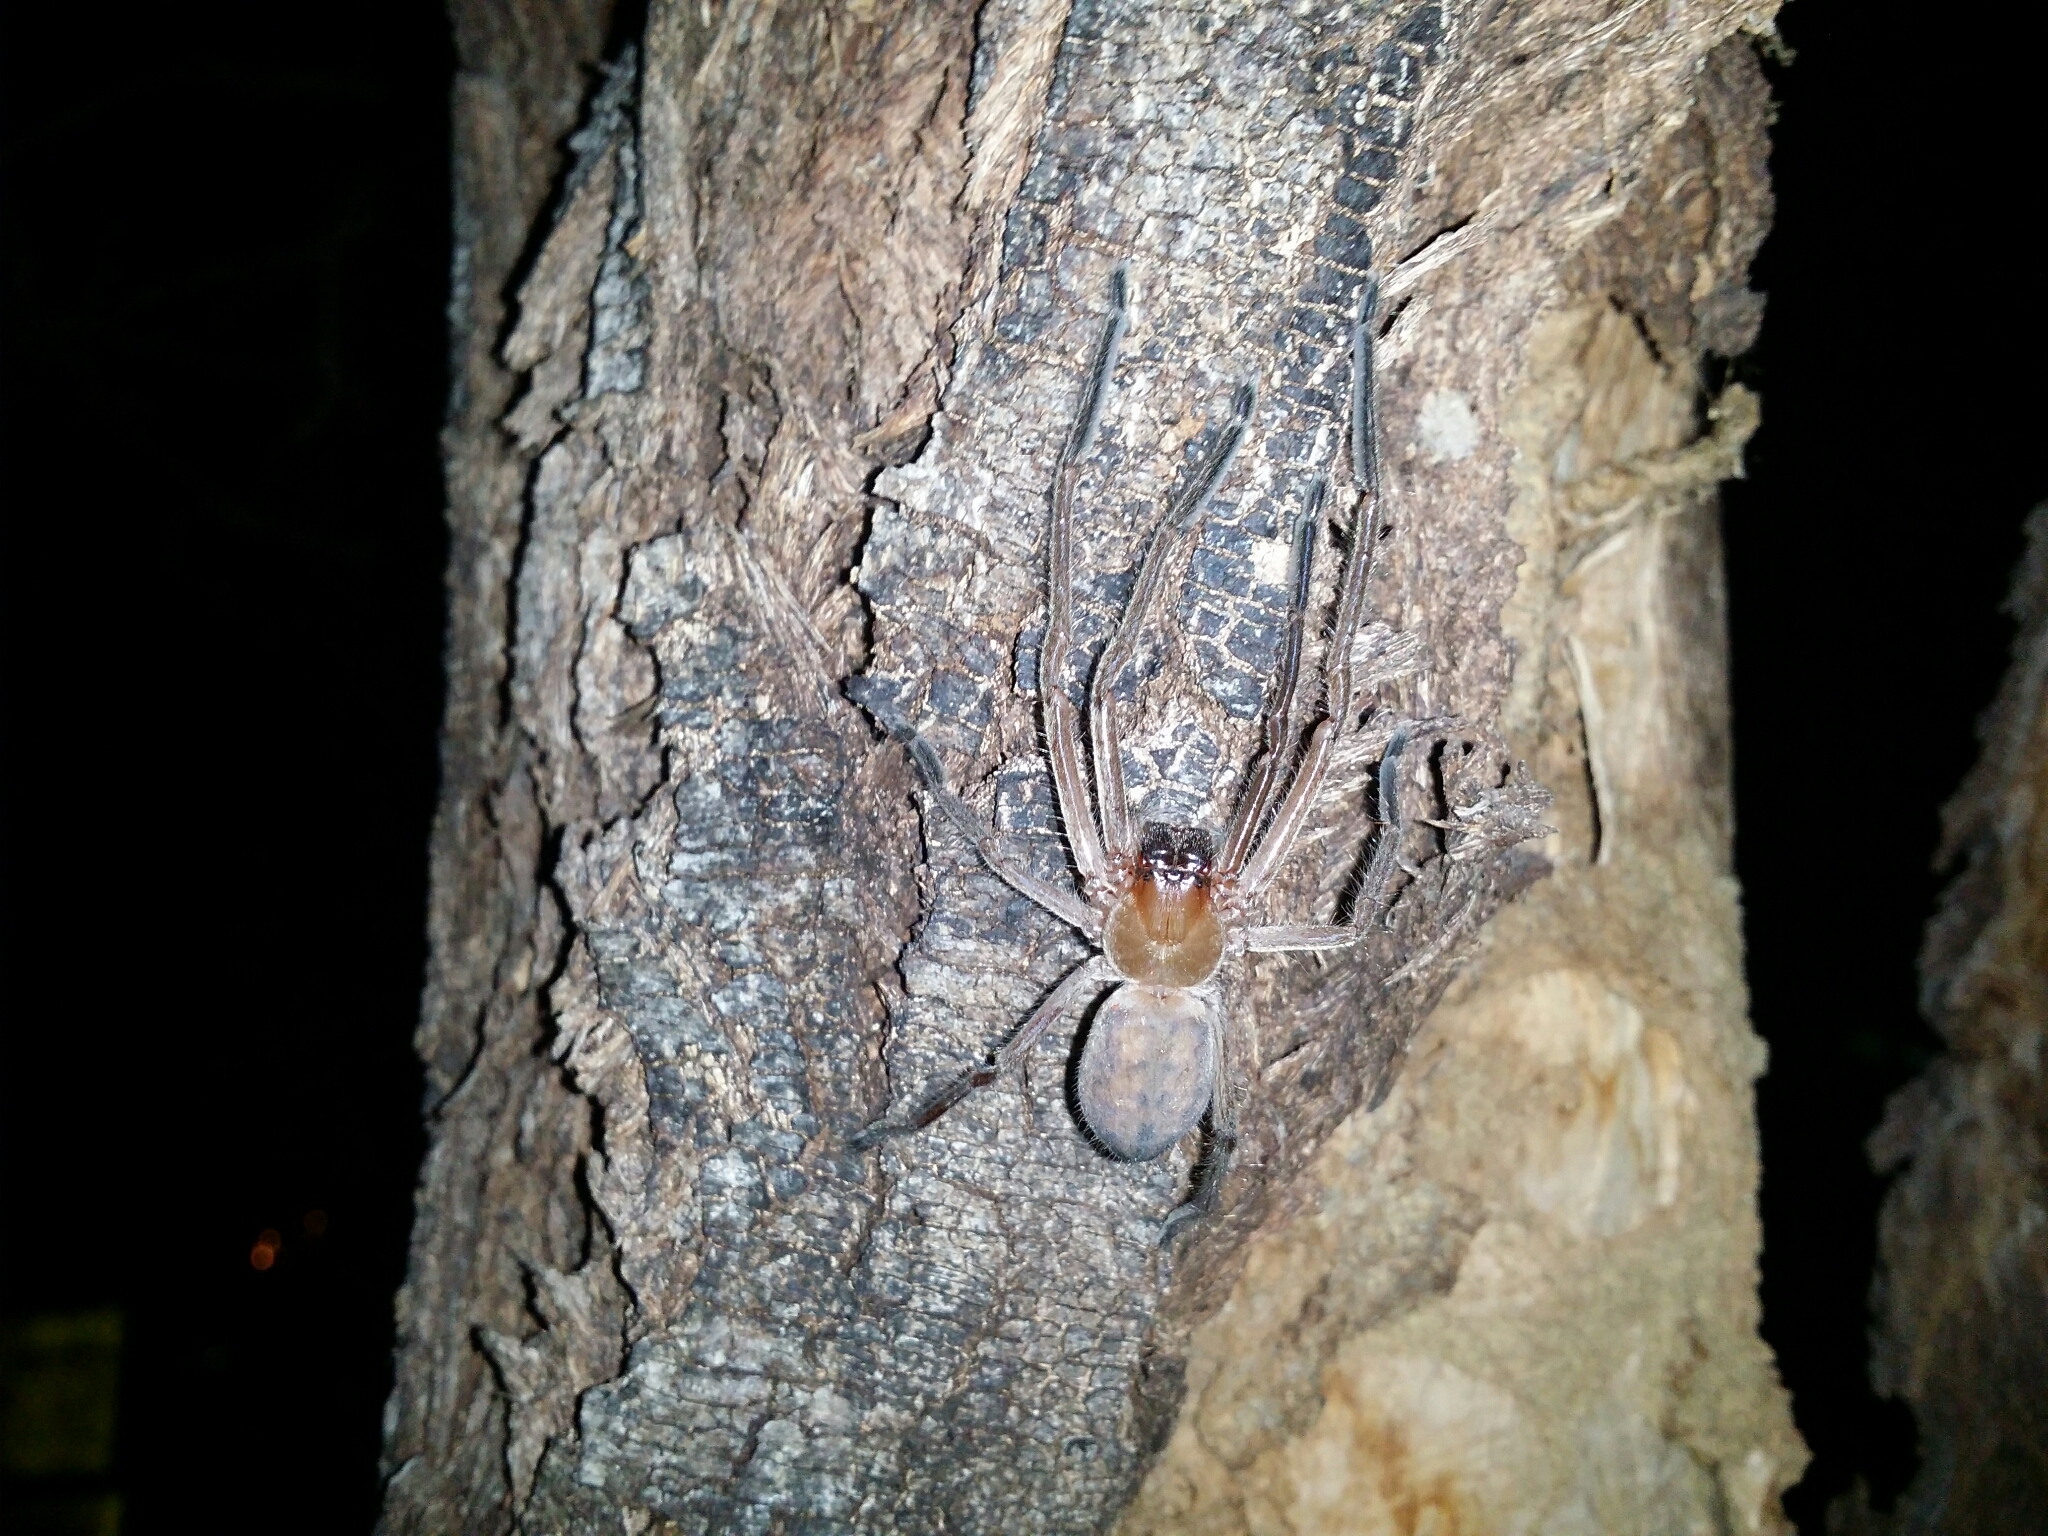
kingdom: Animalia
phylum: Arthropoda
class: Arachnida
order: Araneae
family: Sparassidae
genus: Delena
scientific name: Delena cancerides
